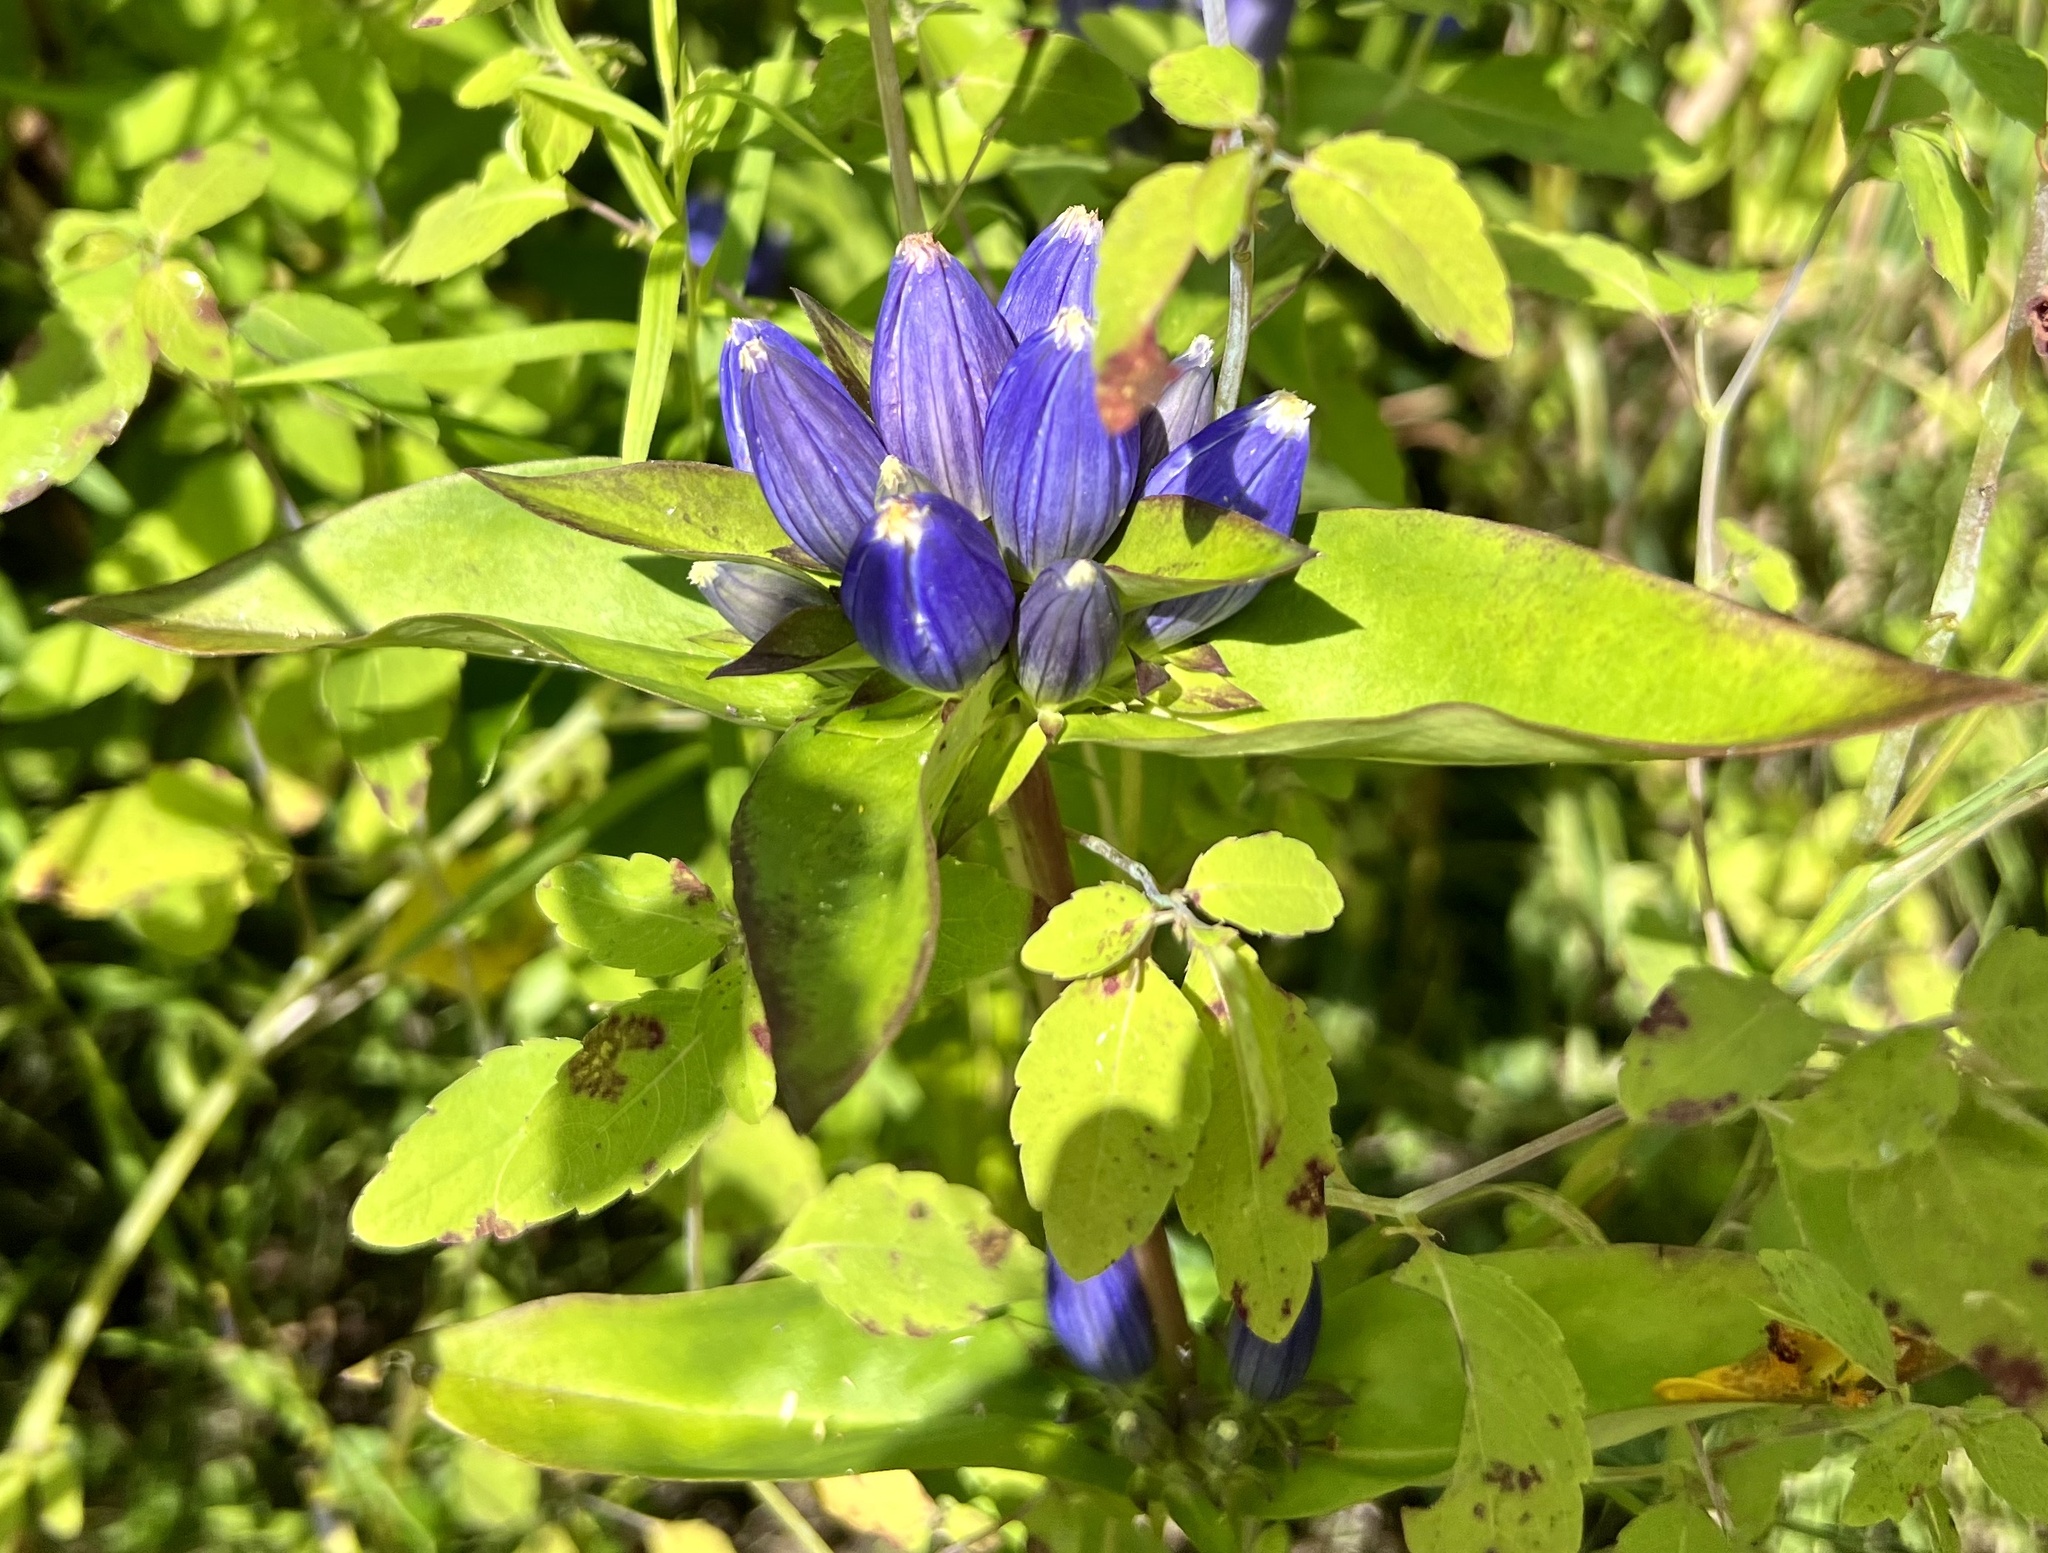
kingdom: Plantae
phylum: Tracheophyta
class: Magnoliopsida
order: Gentianales
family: Gentianaceae
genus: Gentiana
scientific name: Gentiana andrewsii
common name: Bottle gentian
